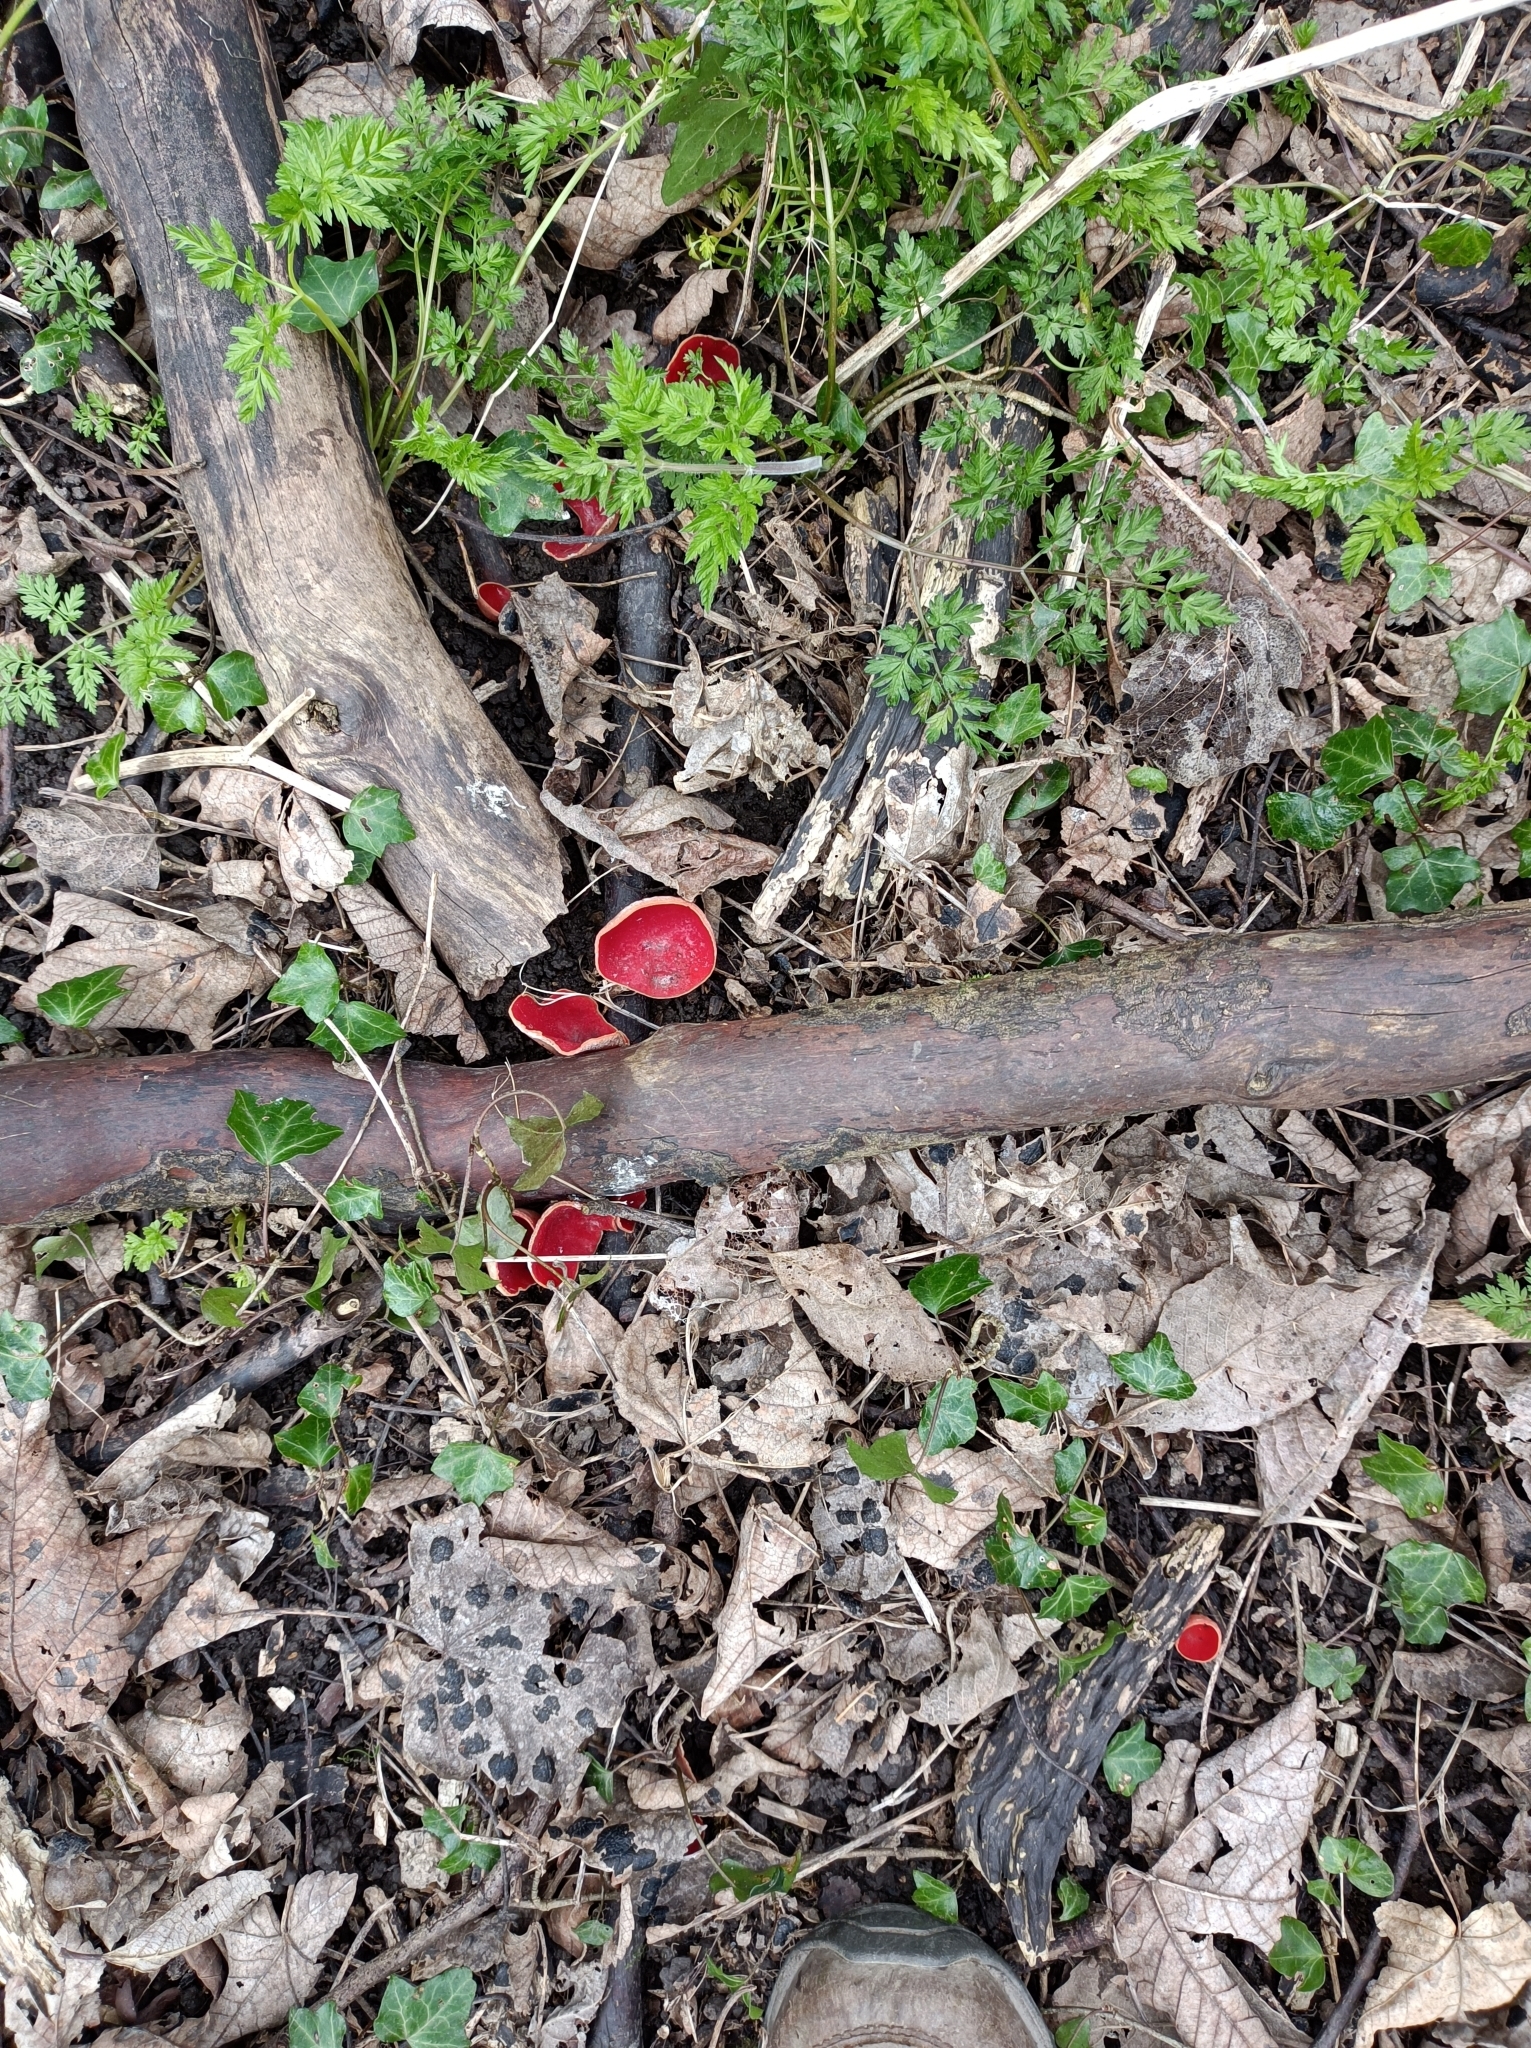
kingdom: Fungi
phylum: Ascomycota
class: Pezizomycetes
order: Pezizales
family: Sarcoscyphaceae
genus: Sarcoscypha
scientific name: Sarcoscypha
